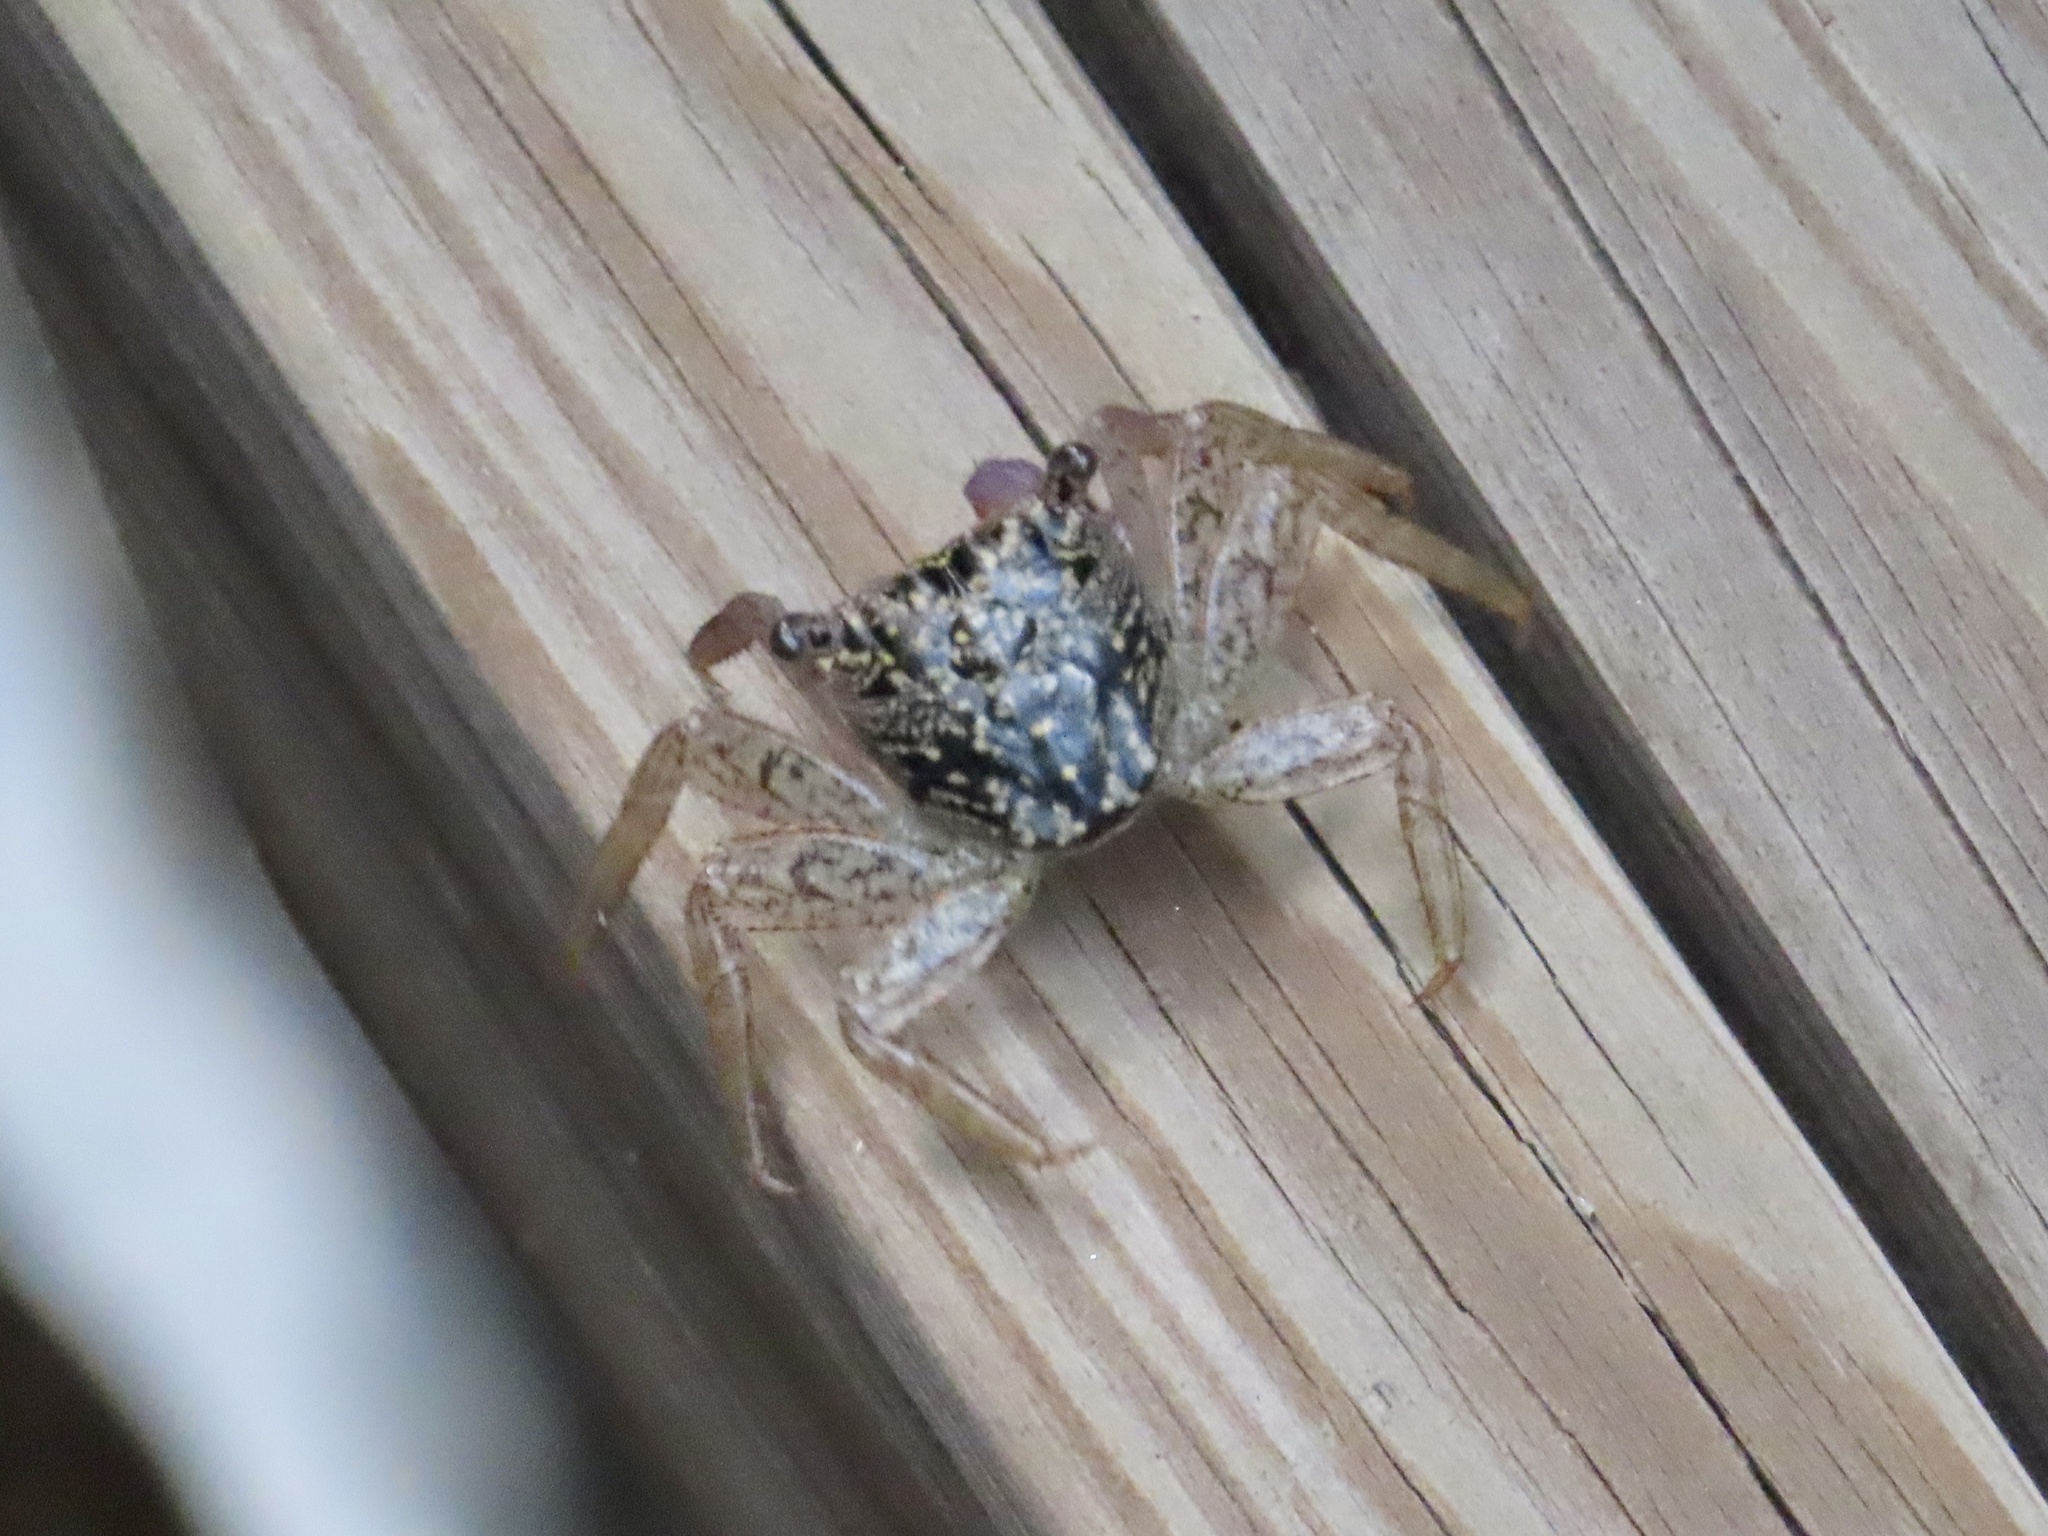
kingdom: Animalia
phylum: Arthropoda
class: Malacostraca
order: Decapoda
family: Sesarmidae
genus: Aratus
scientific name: Aratus pisonii
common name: Mangrove crab
